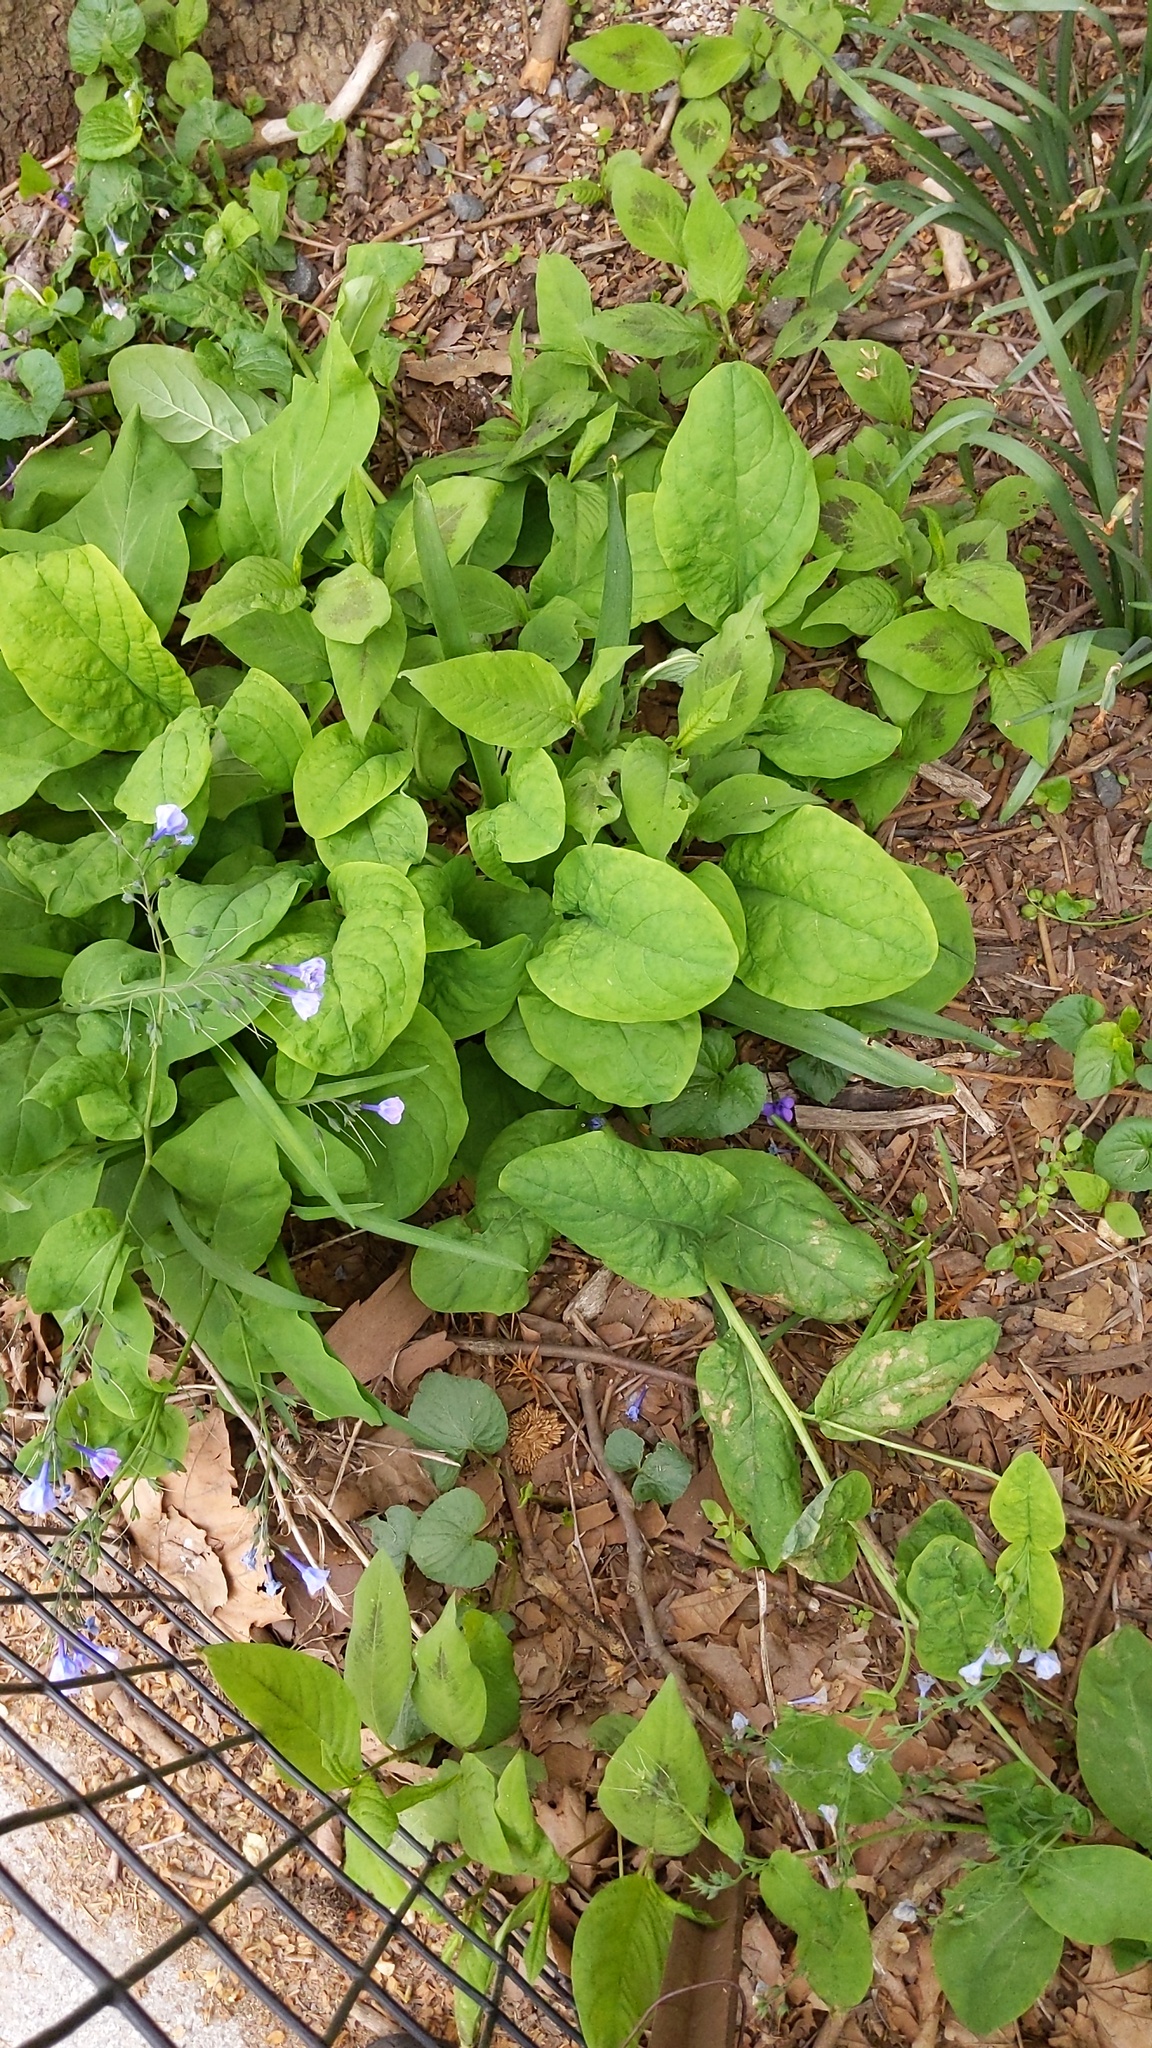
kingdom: Plantae
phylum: Tracheophyta
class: Magnoliopsida
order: Boraginales
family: Boraginaceae
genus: Mertensia
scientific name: Mertensia virginica
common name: Virginia bluebells
